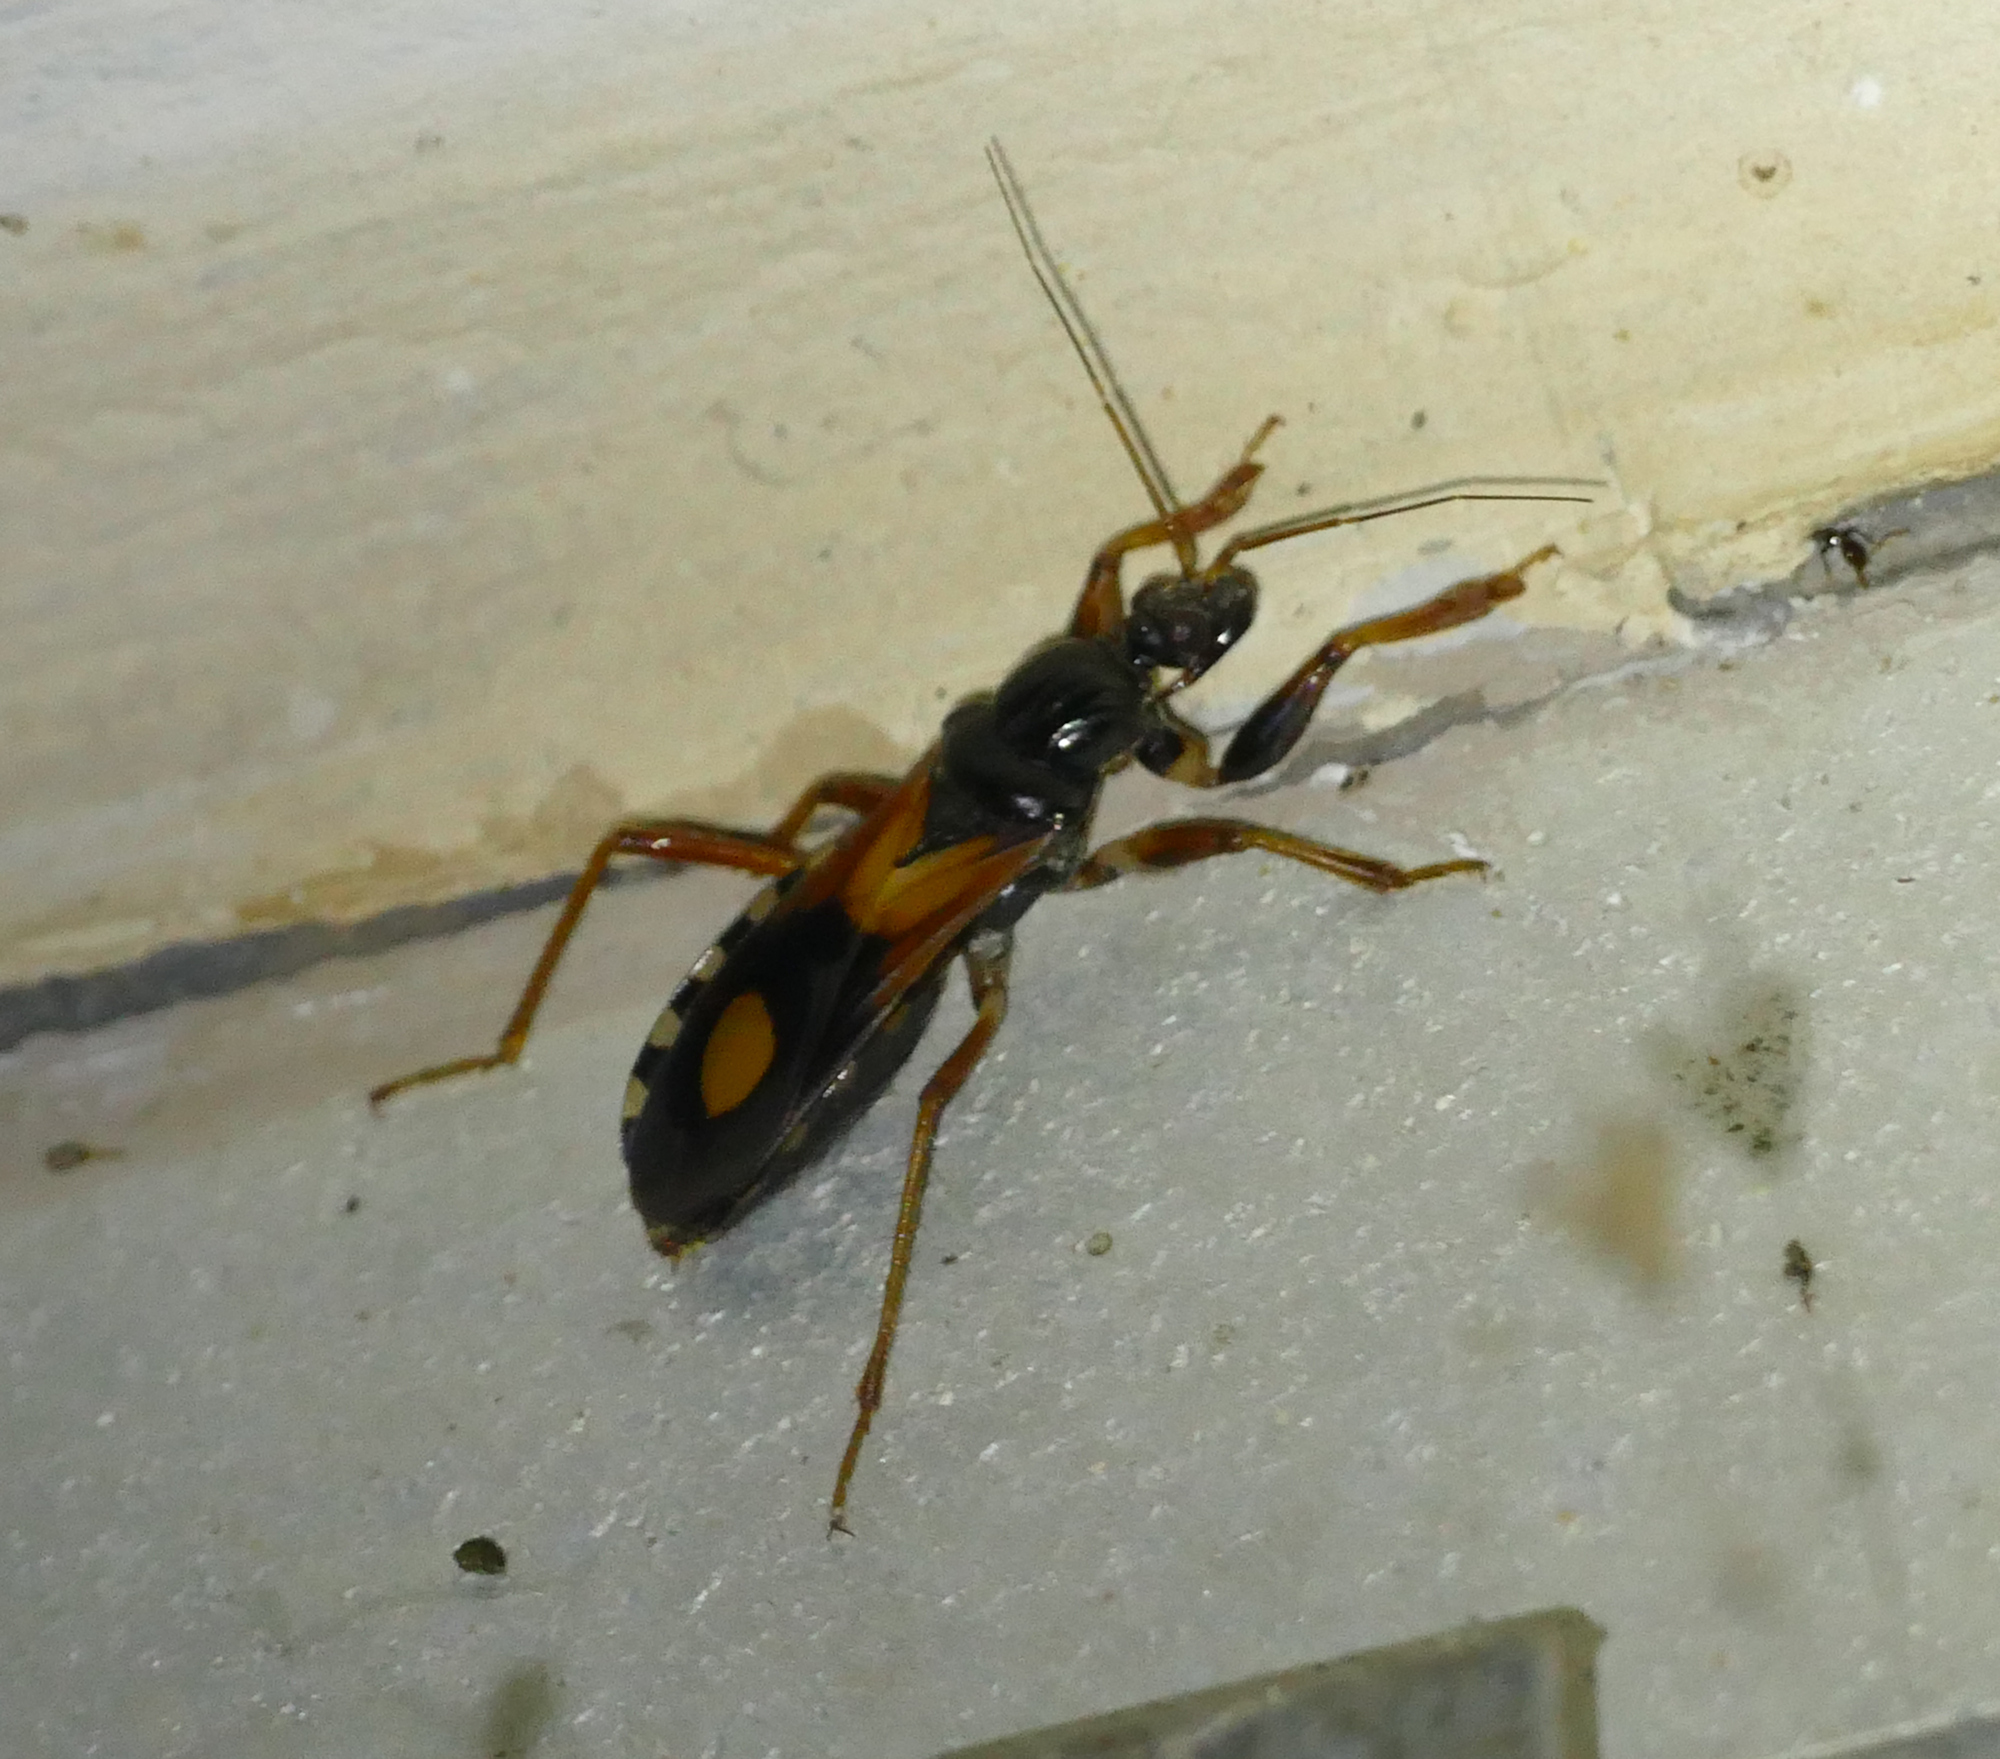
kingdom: Animalia
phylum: Arthropoda
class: Insecta
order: Hemiptera
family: Reduviidae
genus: Rasahus
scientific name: Rasahus biguttatus
